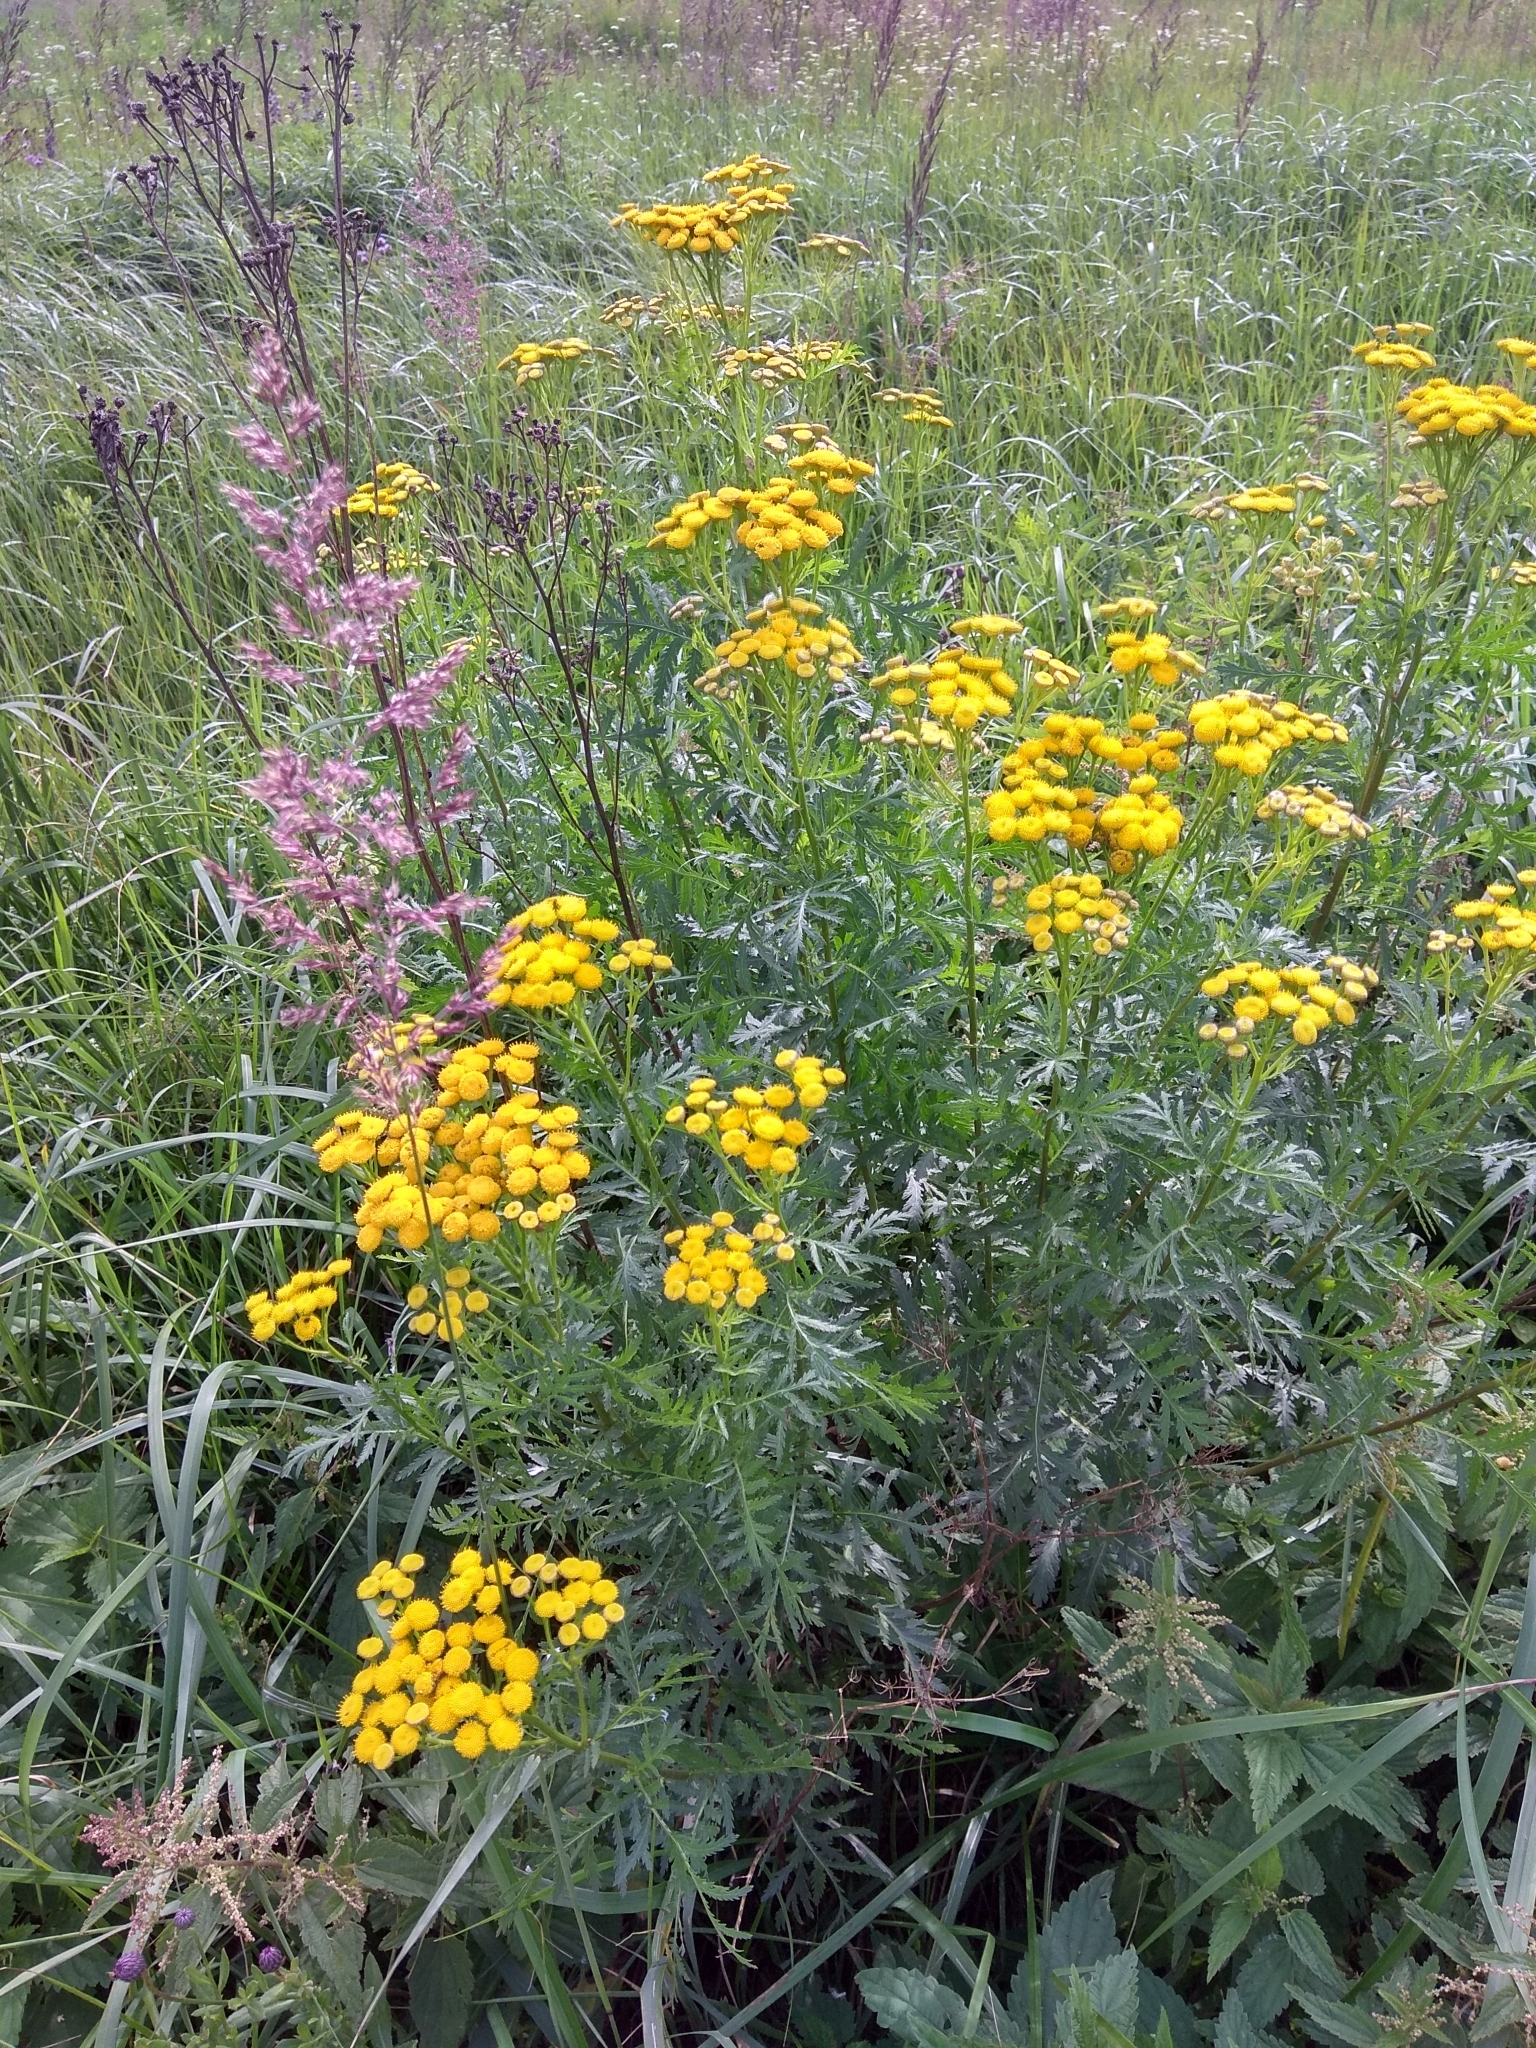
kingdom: Plantae
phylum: Tracheophyta
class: Magnoliopsida
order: Asterales
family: Asteraceae
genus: Tanacetum
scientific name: Tanacetum vulgare
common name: Common tansy
